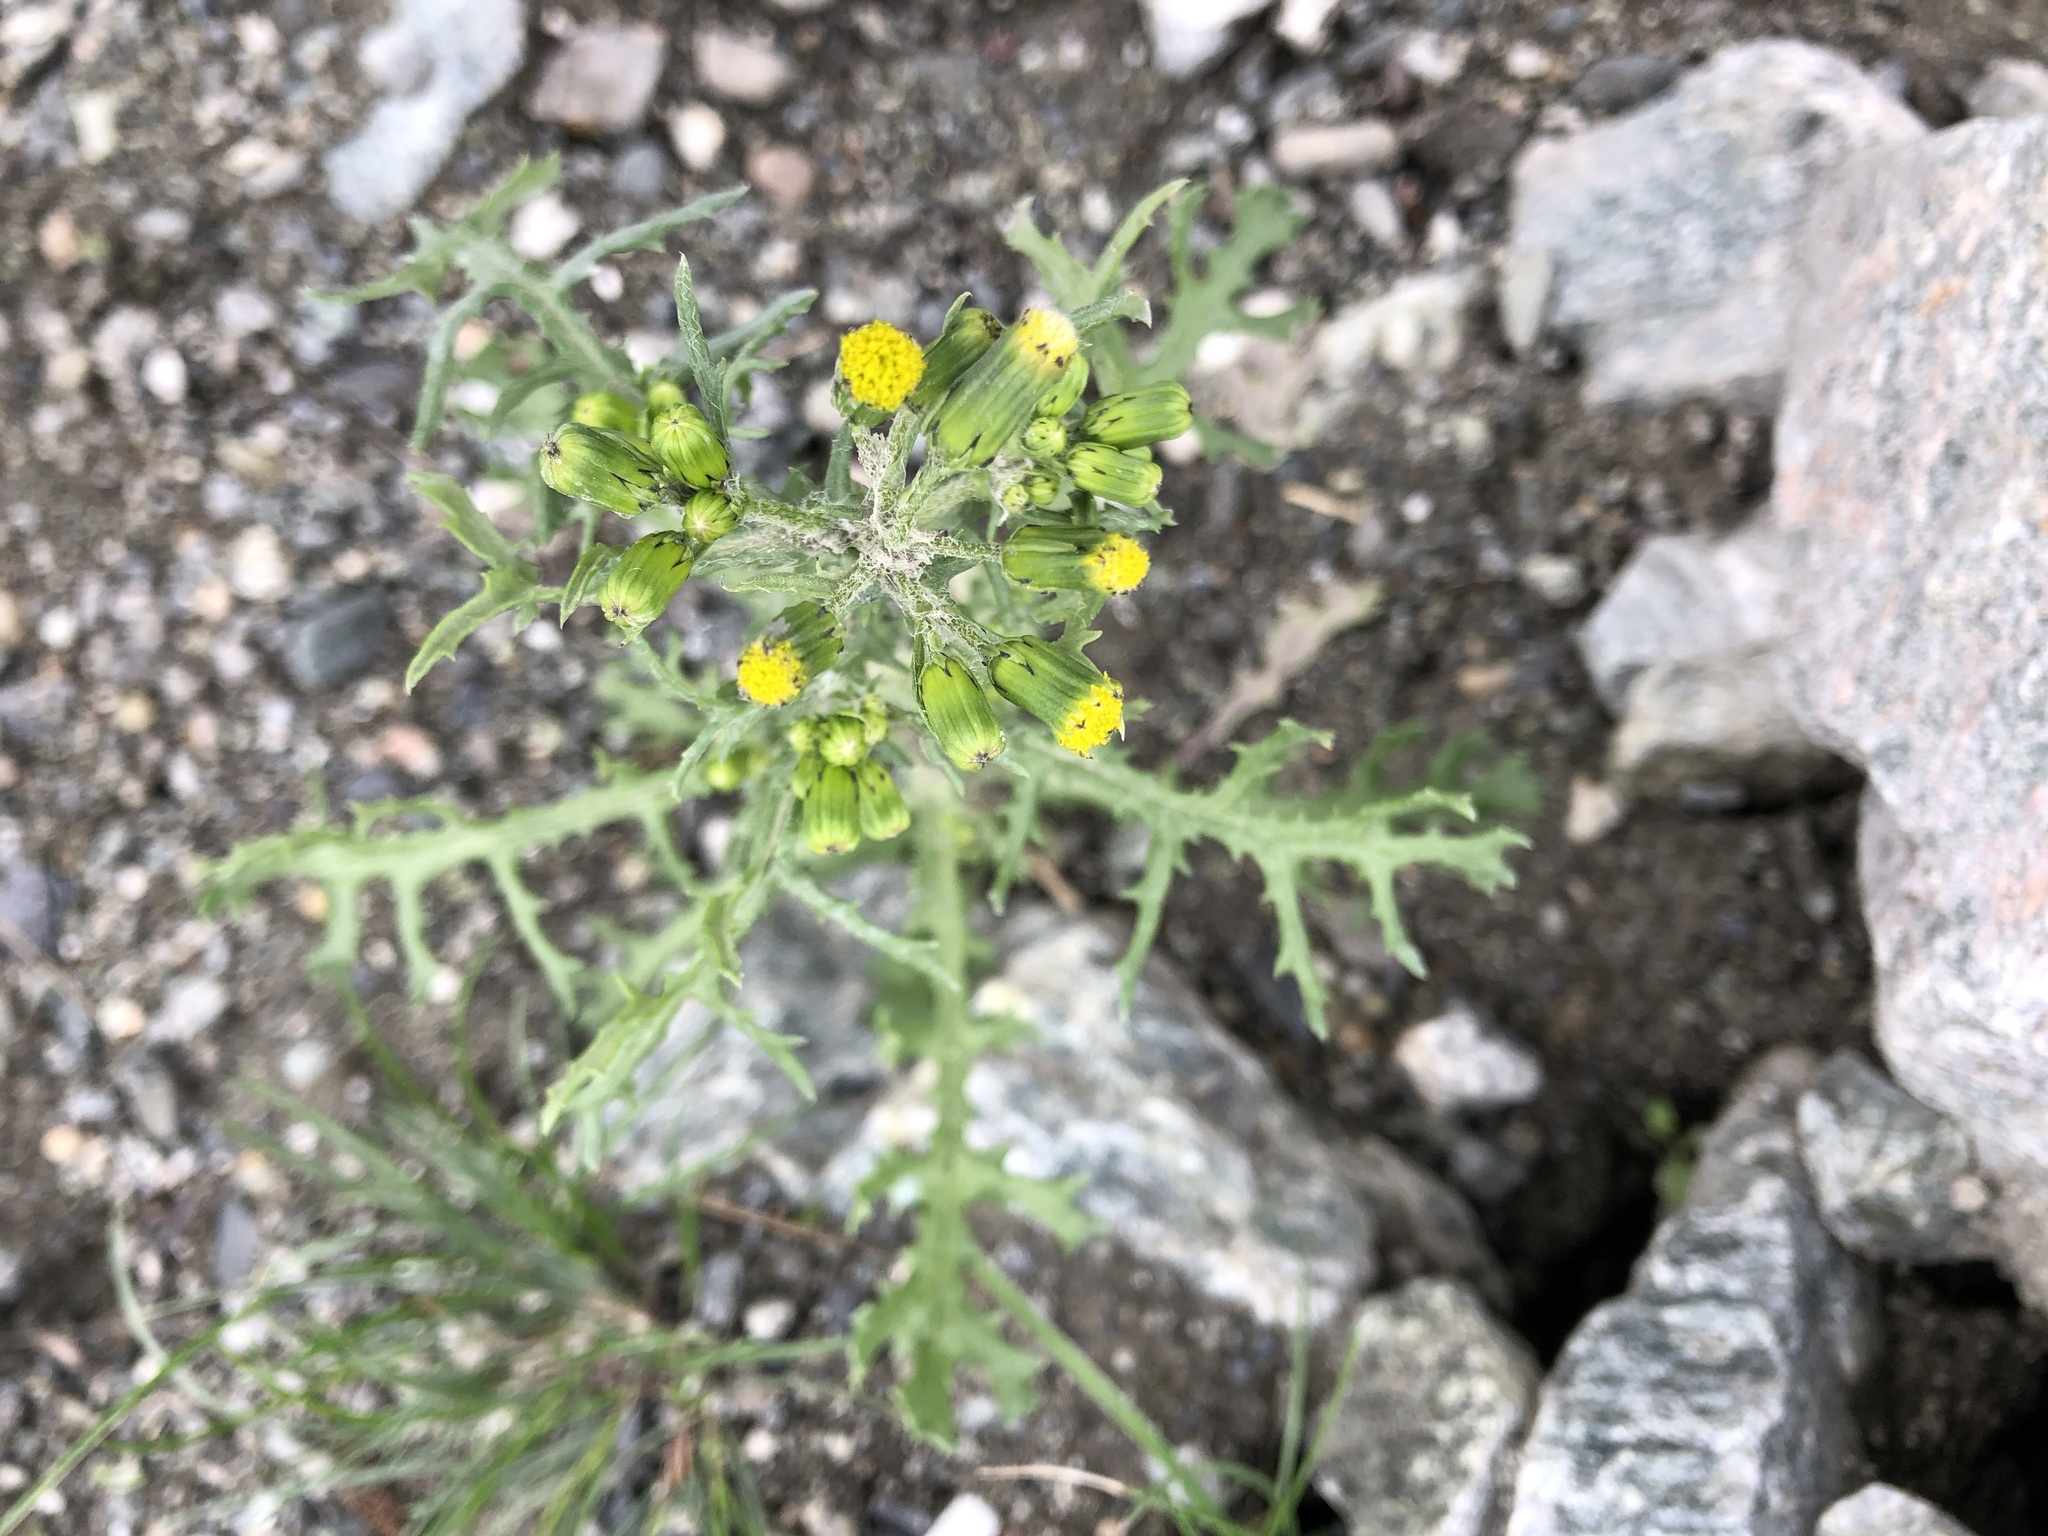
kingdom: Plantae
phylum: Tracheophyta
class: Magnoliopsida
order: Asterales
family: Asteraceae
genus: Senecio
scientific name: Senecio vulgaris
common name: Old-man-in-the-spring
